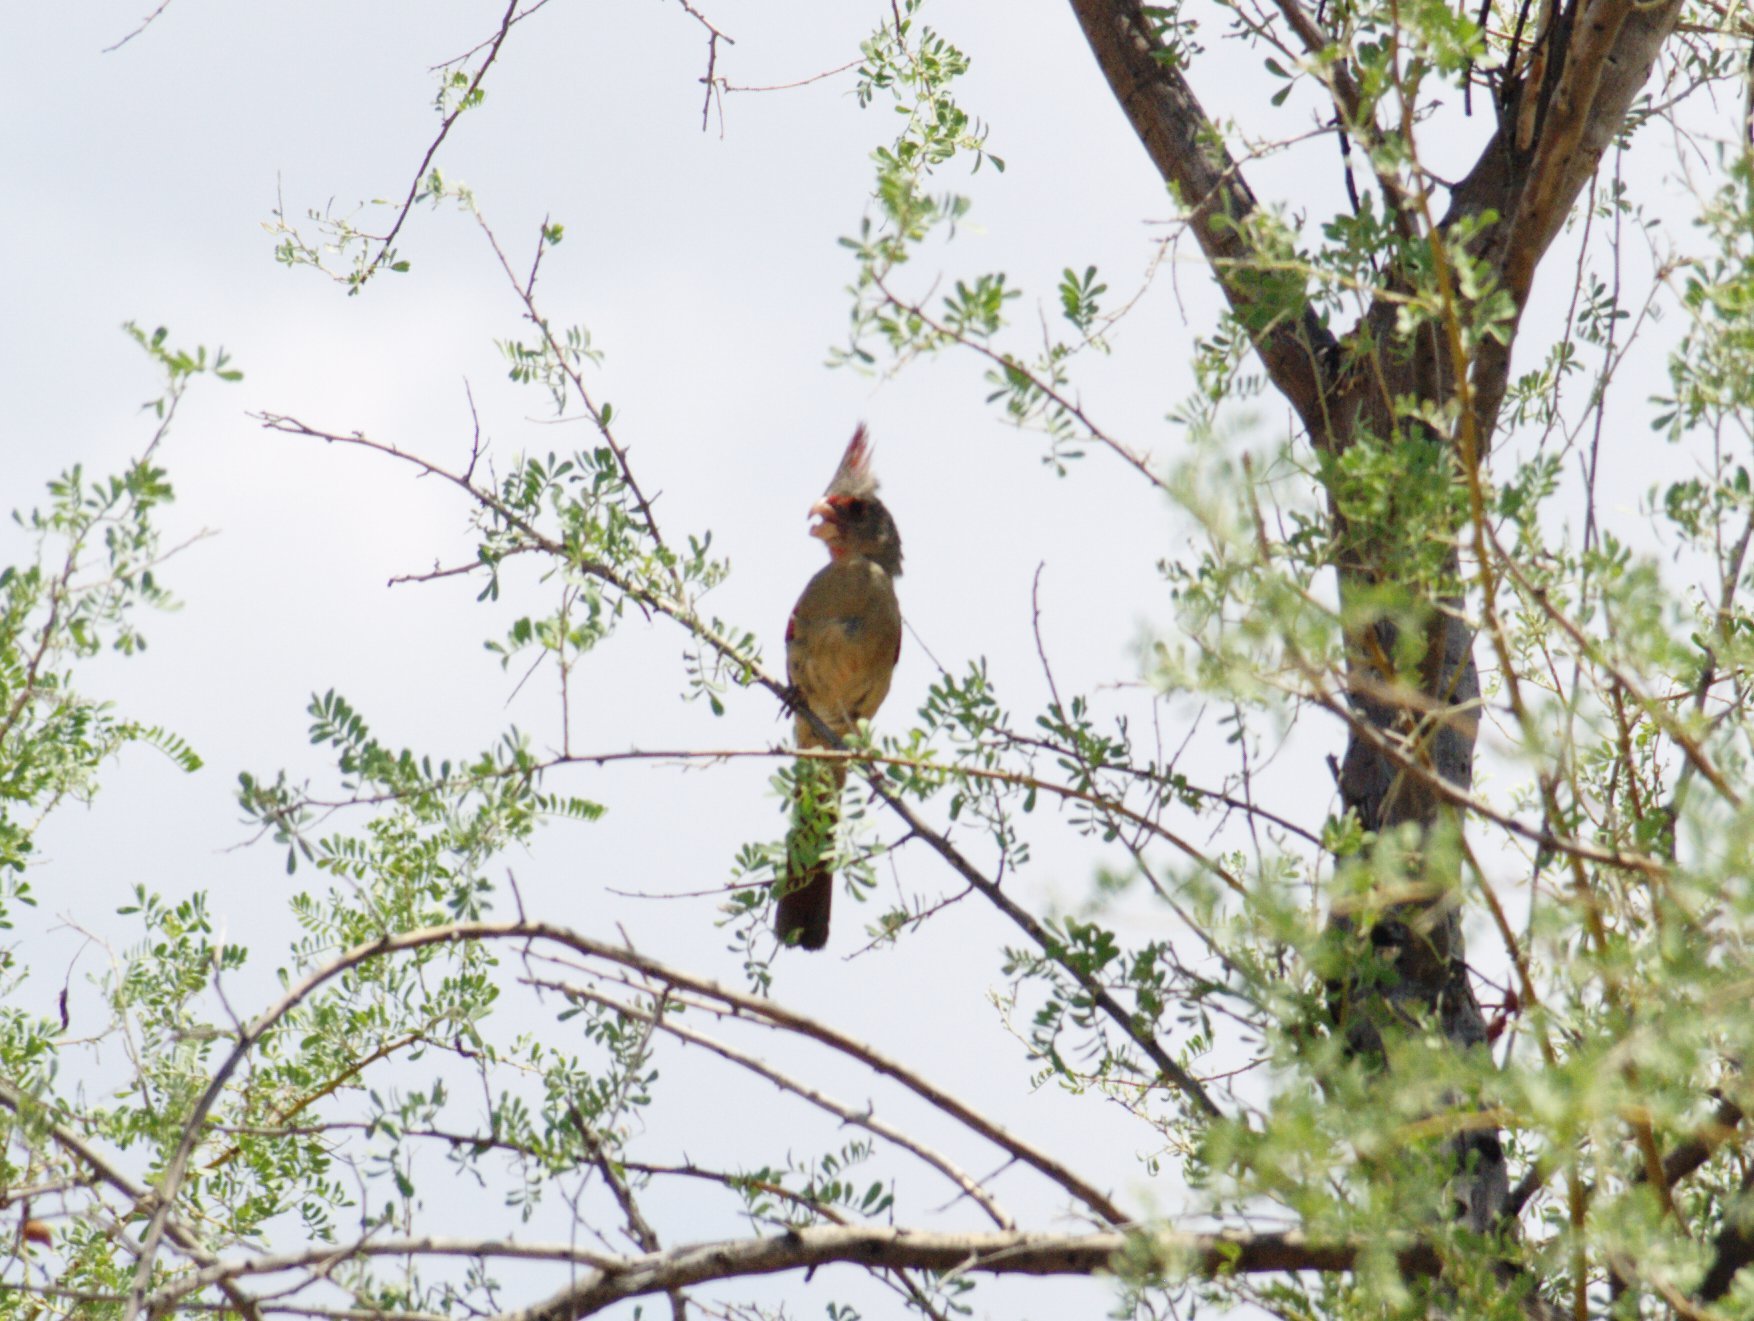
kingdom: Animalia
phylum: Chordata
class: Aves
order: Passeriformes
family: Cardinalidae
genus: Cardinalis
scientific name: Cardinalis sinuatus
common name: Pyrrhuloxia
